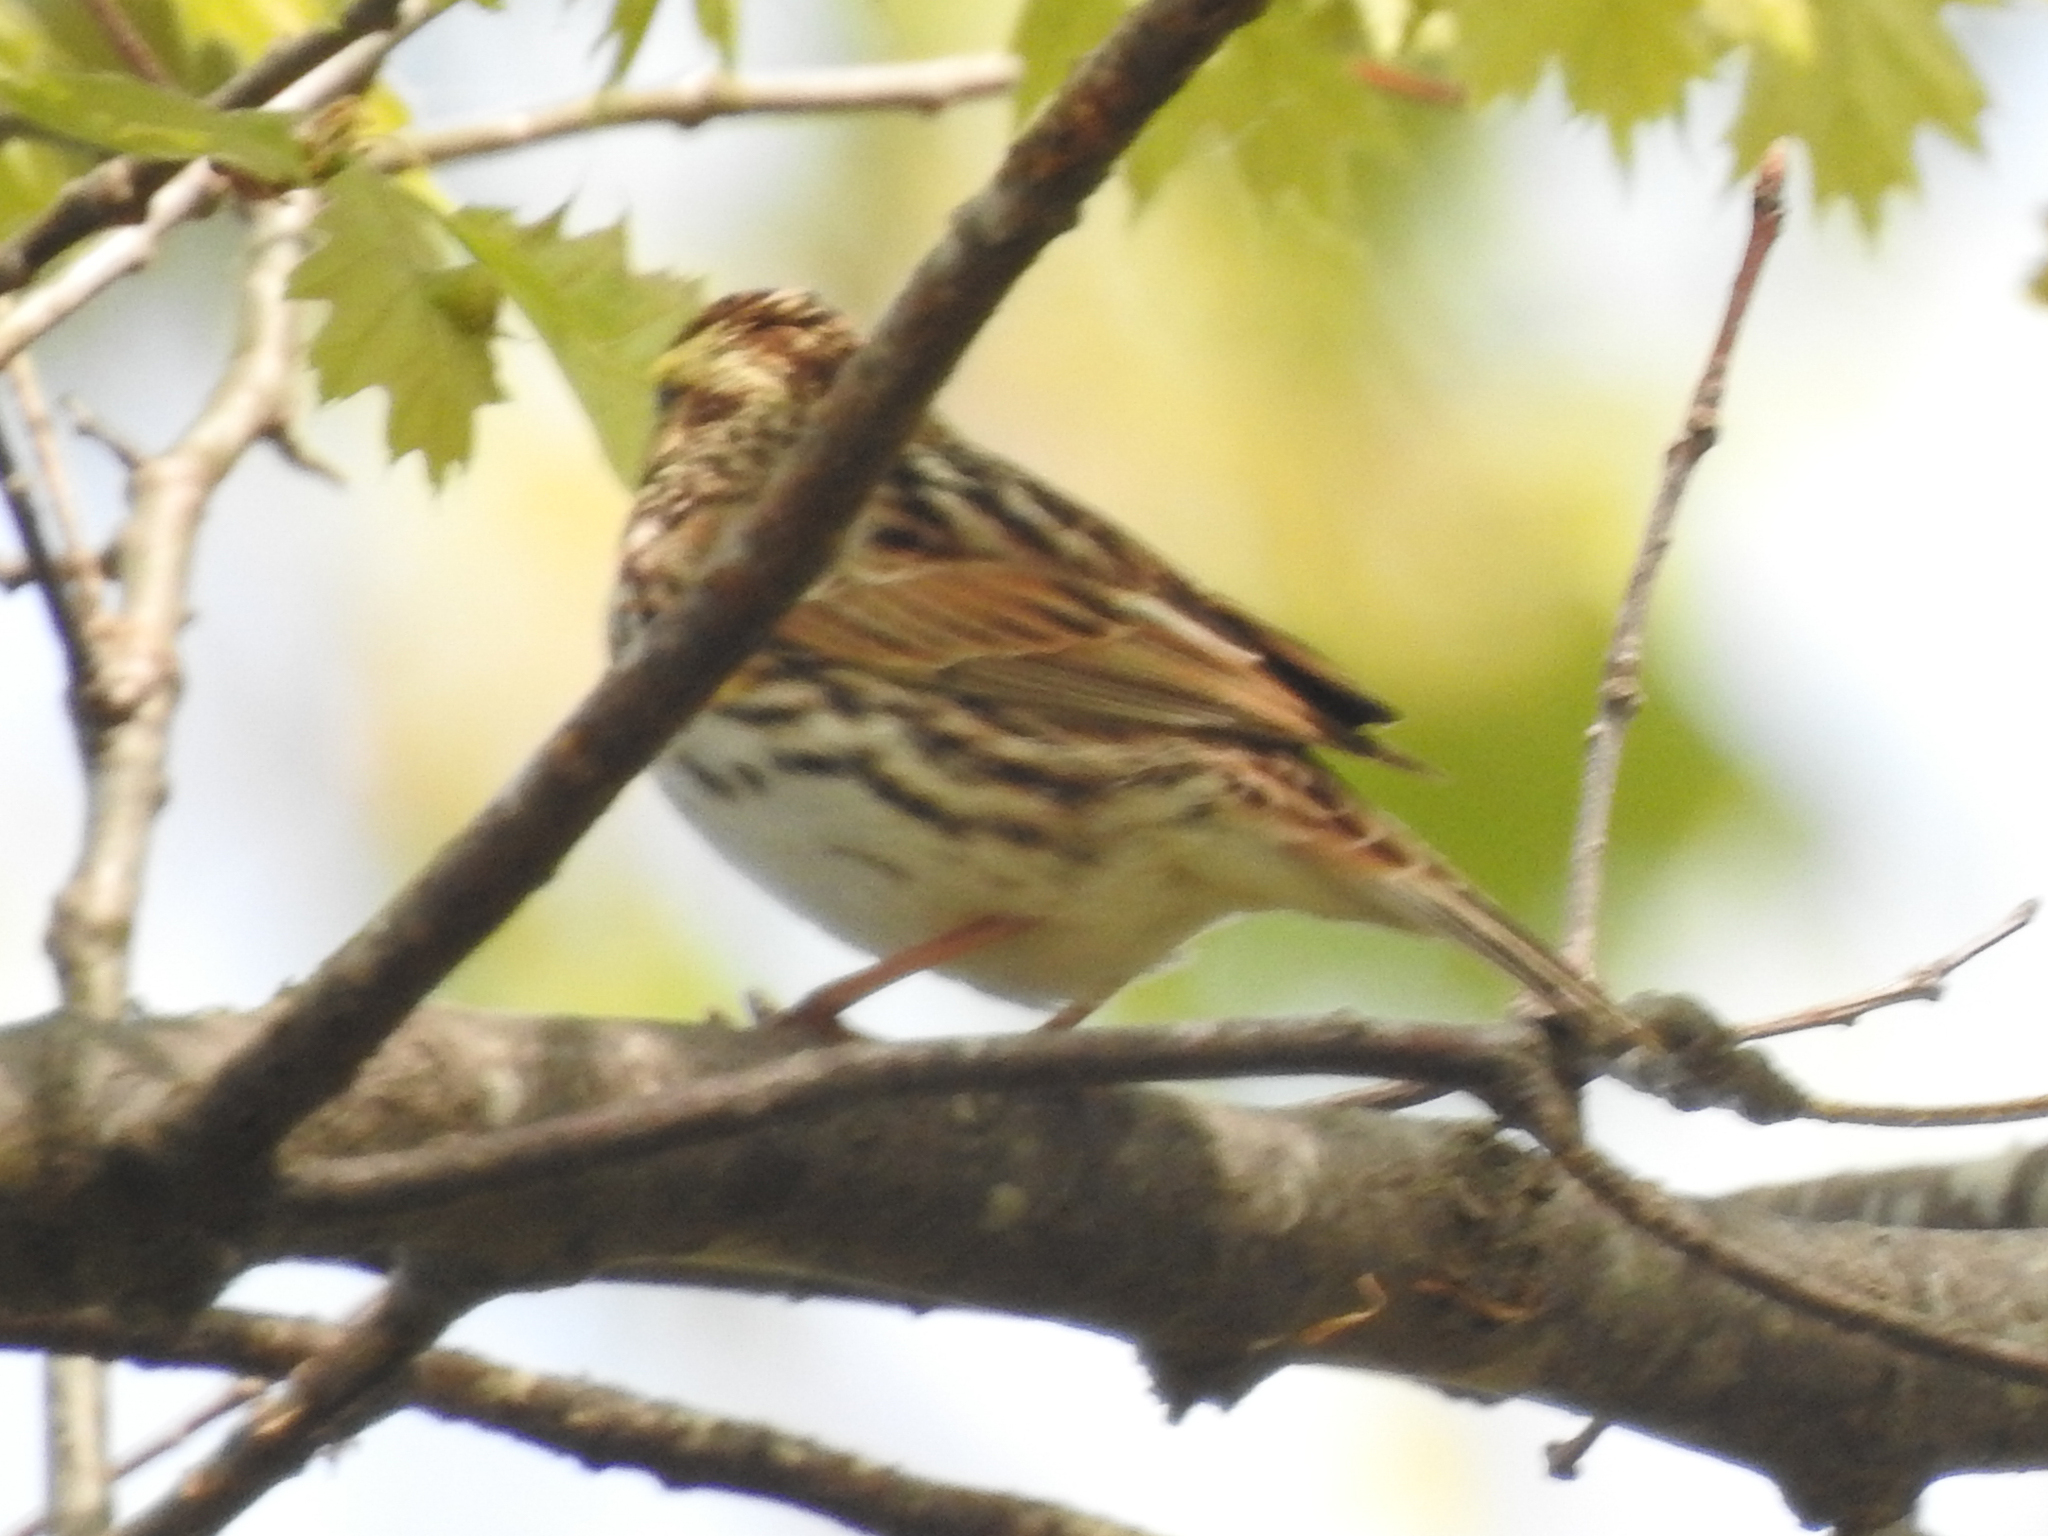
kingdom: Animalia
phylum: Chordata
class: Aves
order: Passeriformes
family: Passerellidae
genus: Passerculus
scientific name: Passerculus sandwichensis
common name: Savannah sparrow
